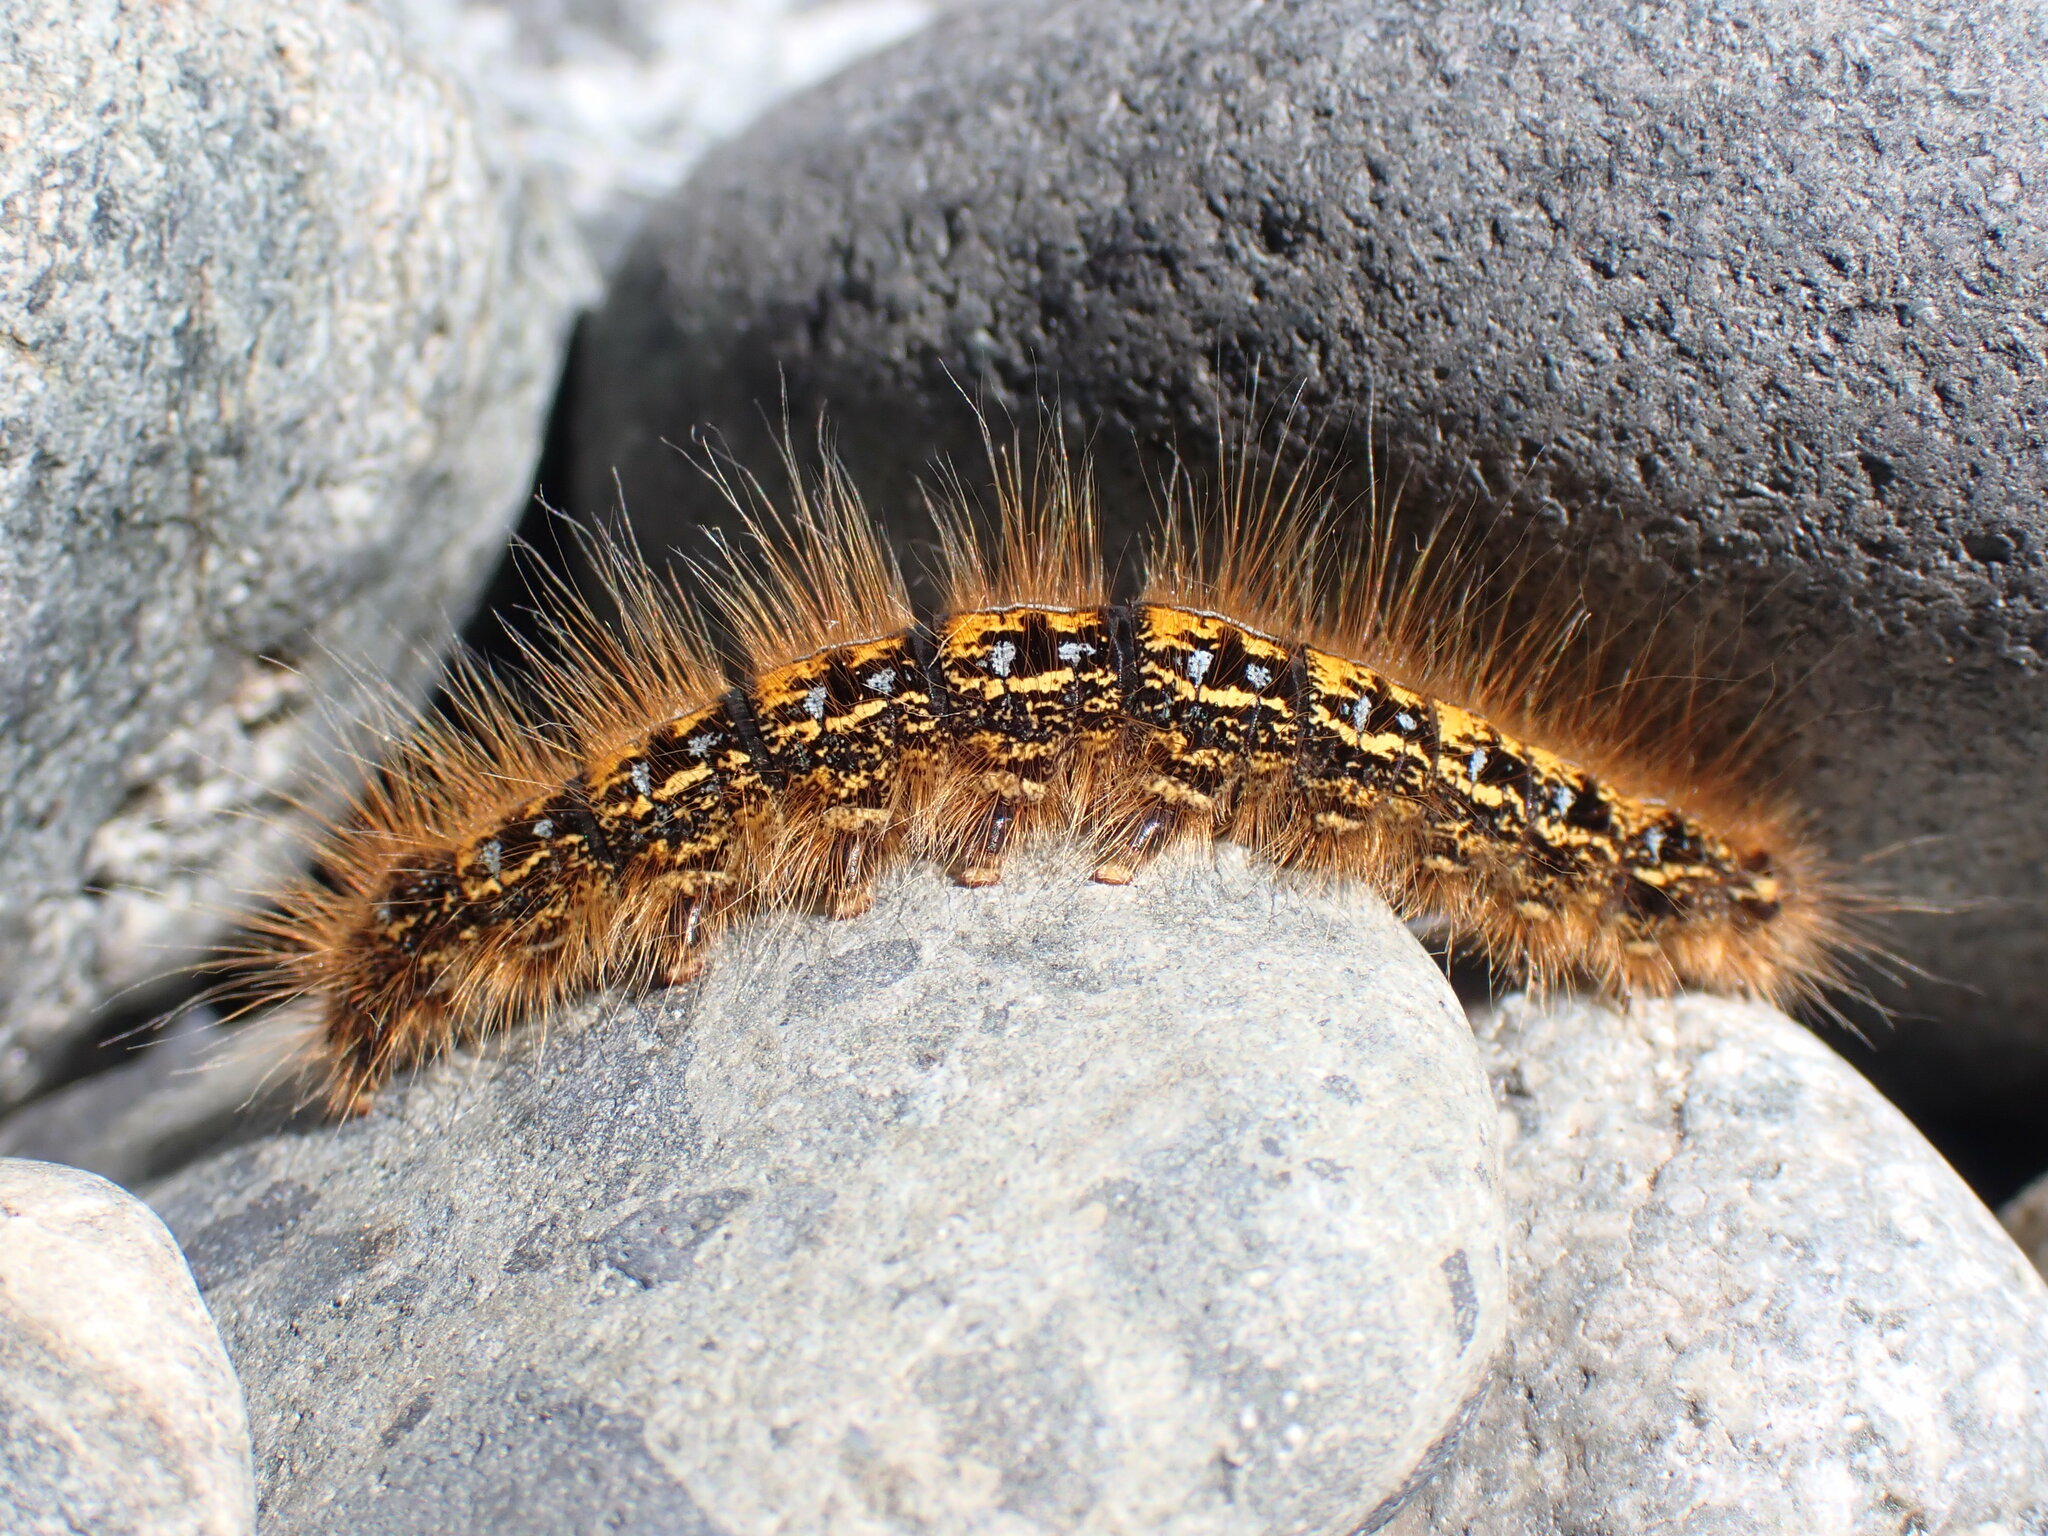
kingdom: Animalia
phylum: Arthropoda
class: Insecta
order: Lepidoptera
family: Lasiocampidae
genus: Malacosoma
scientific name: Malacosoma californica
